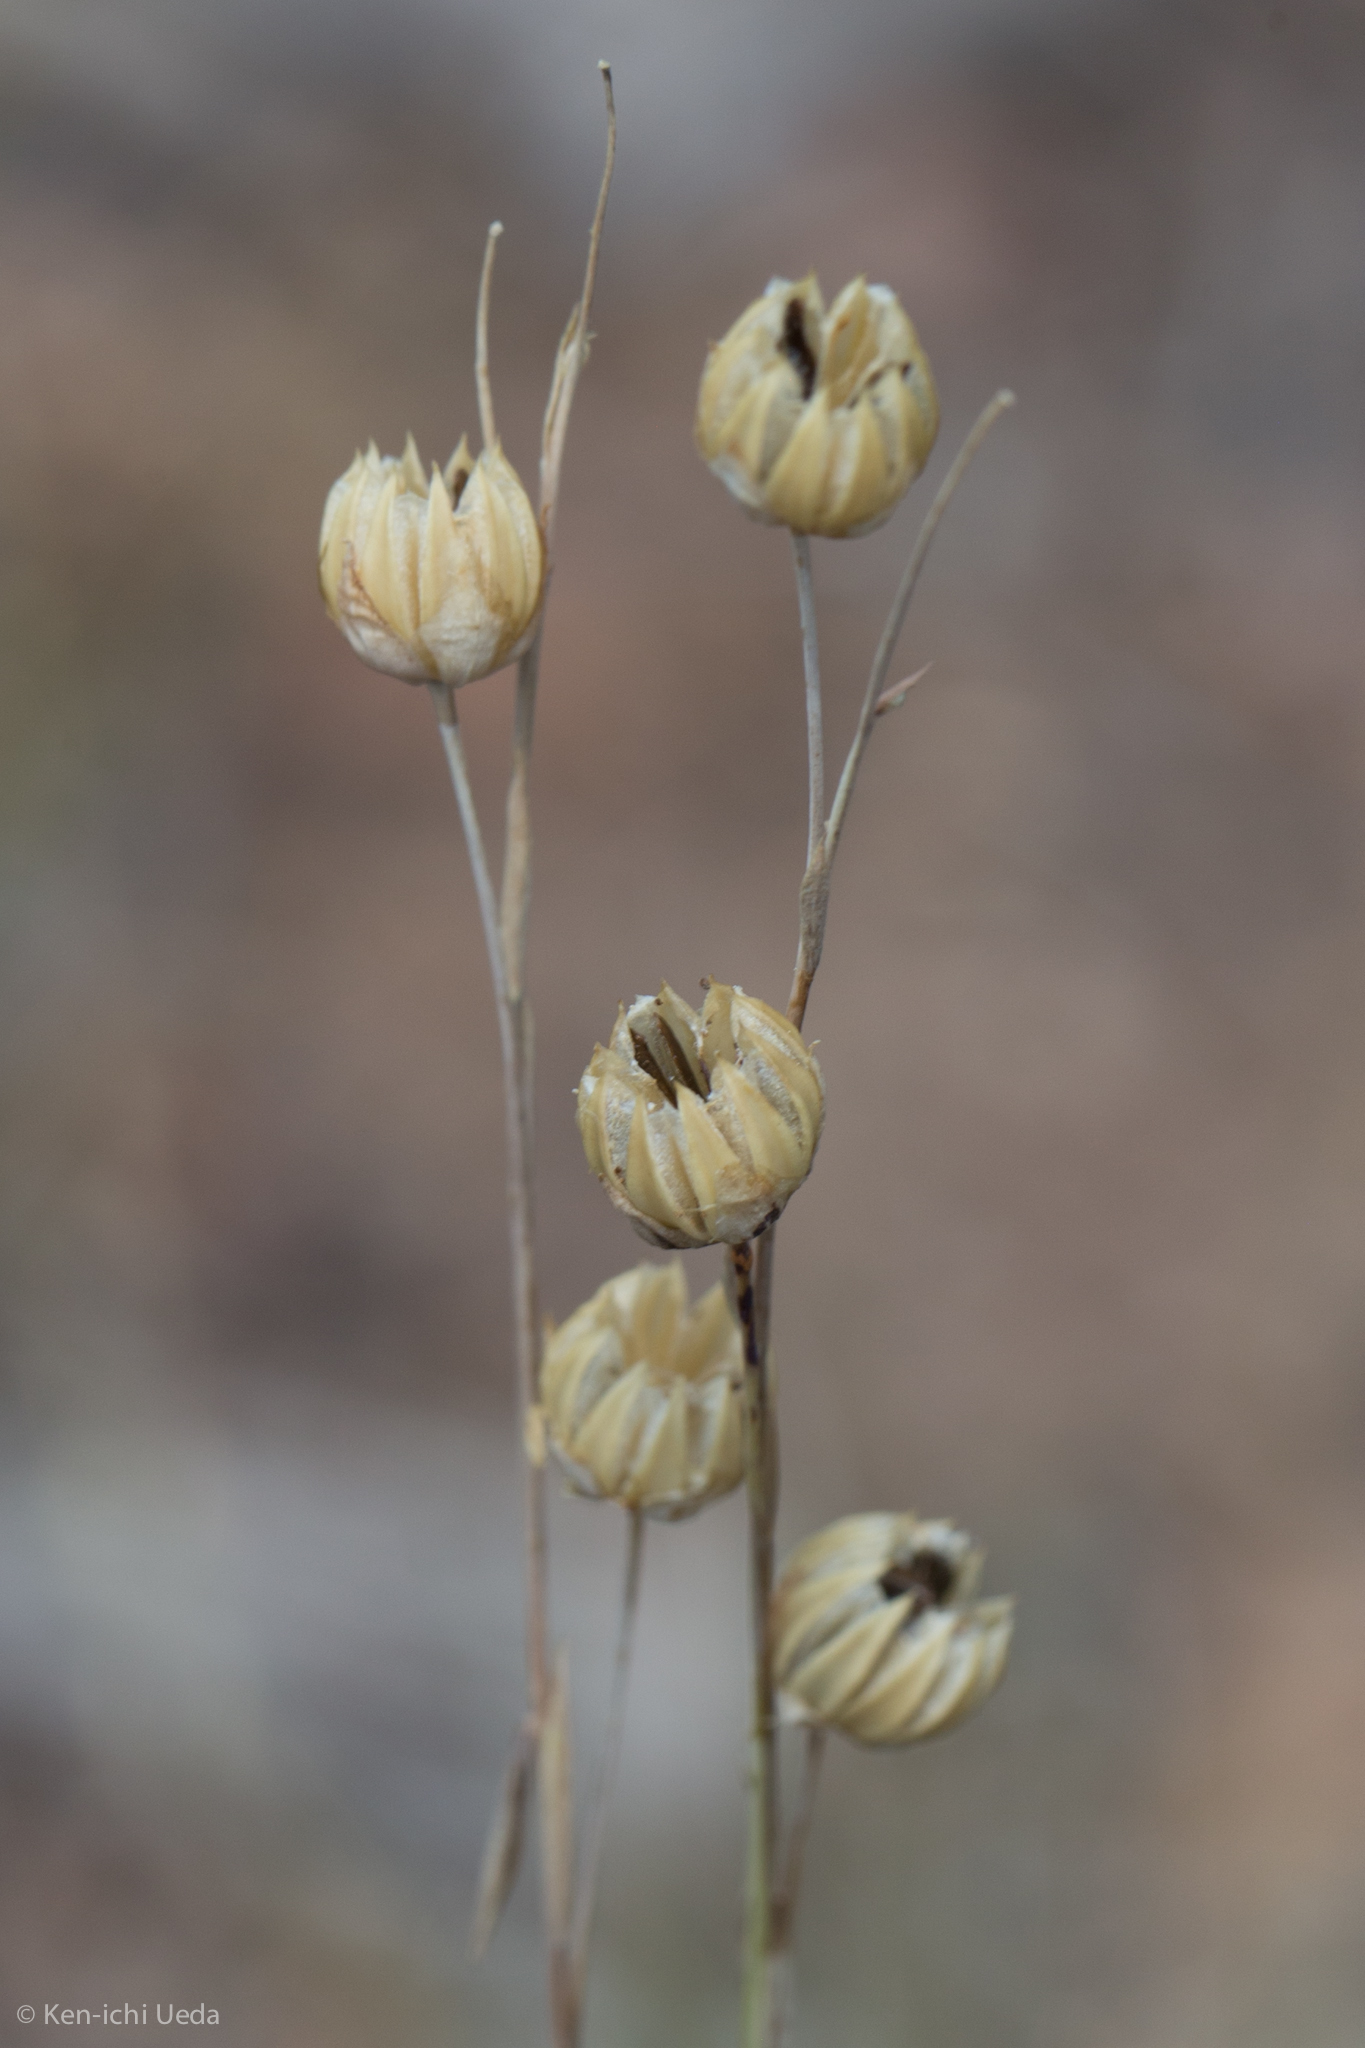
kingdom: Plantae
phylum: Tracheophyta
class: Magnoliopsida
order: Malpighiales
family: Linaceae
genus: Linum
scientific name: Linum lewisii
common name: Prairie flax
